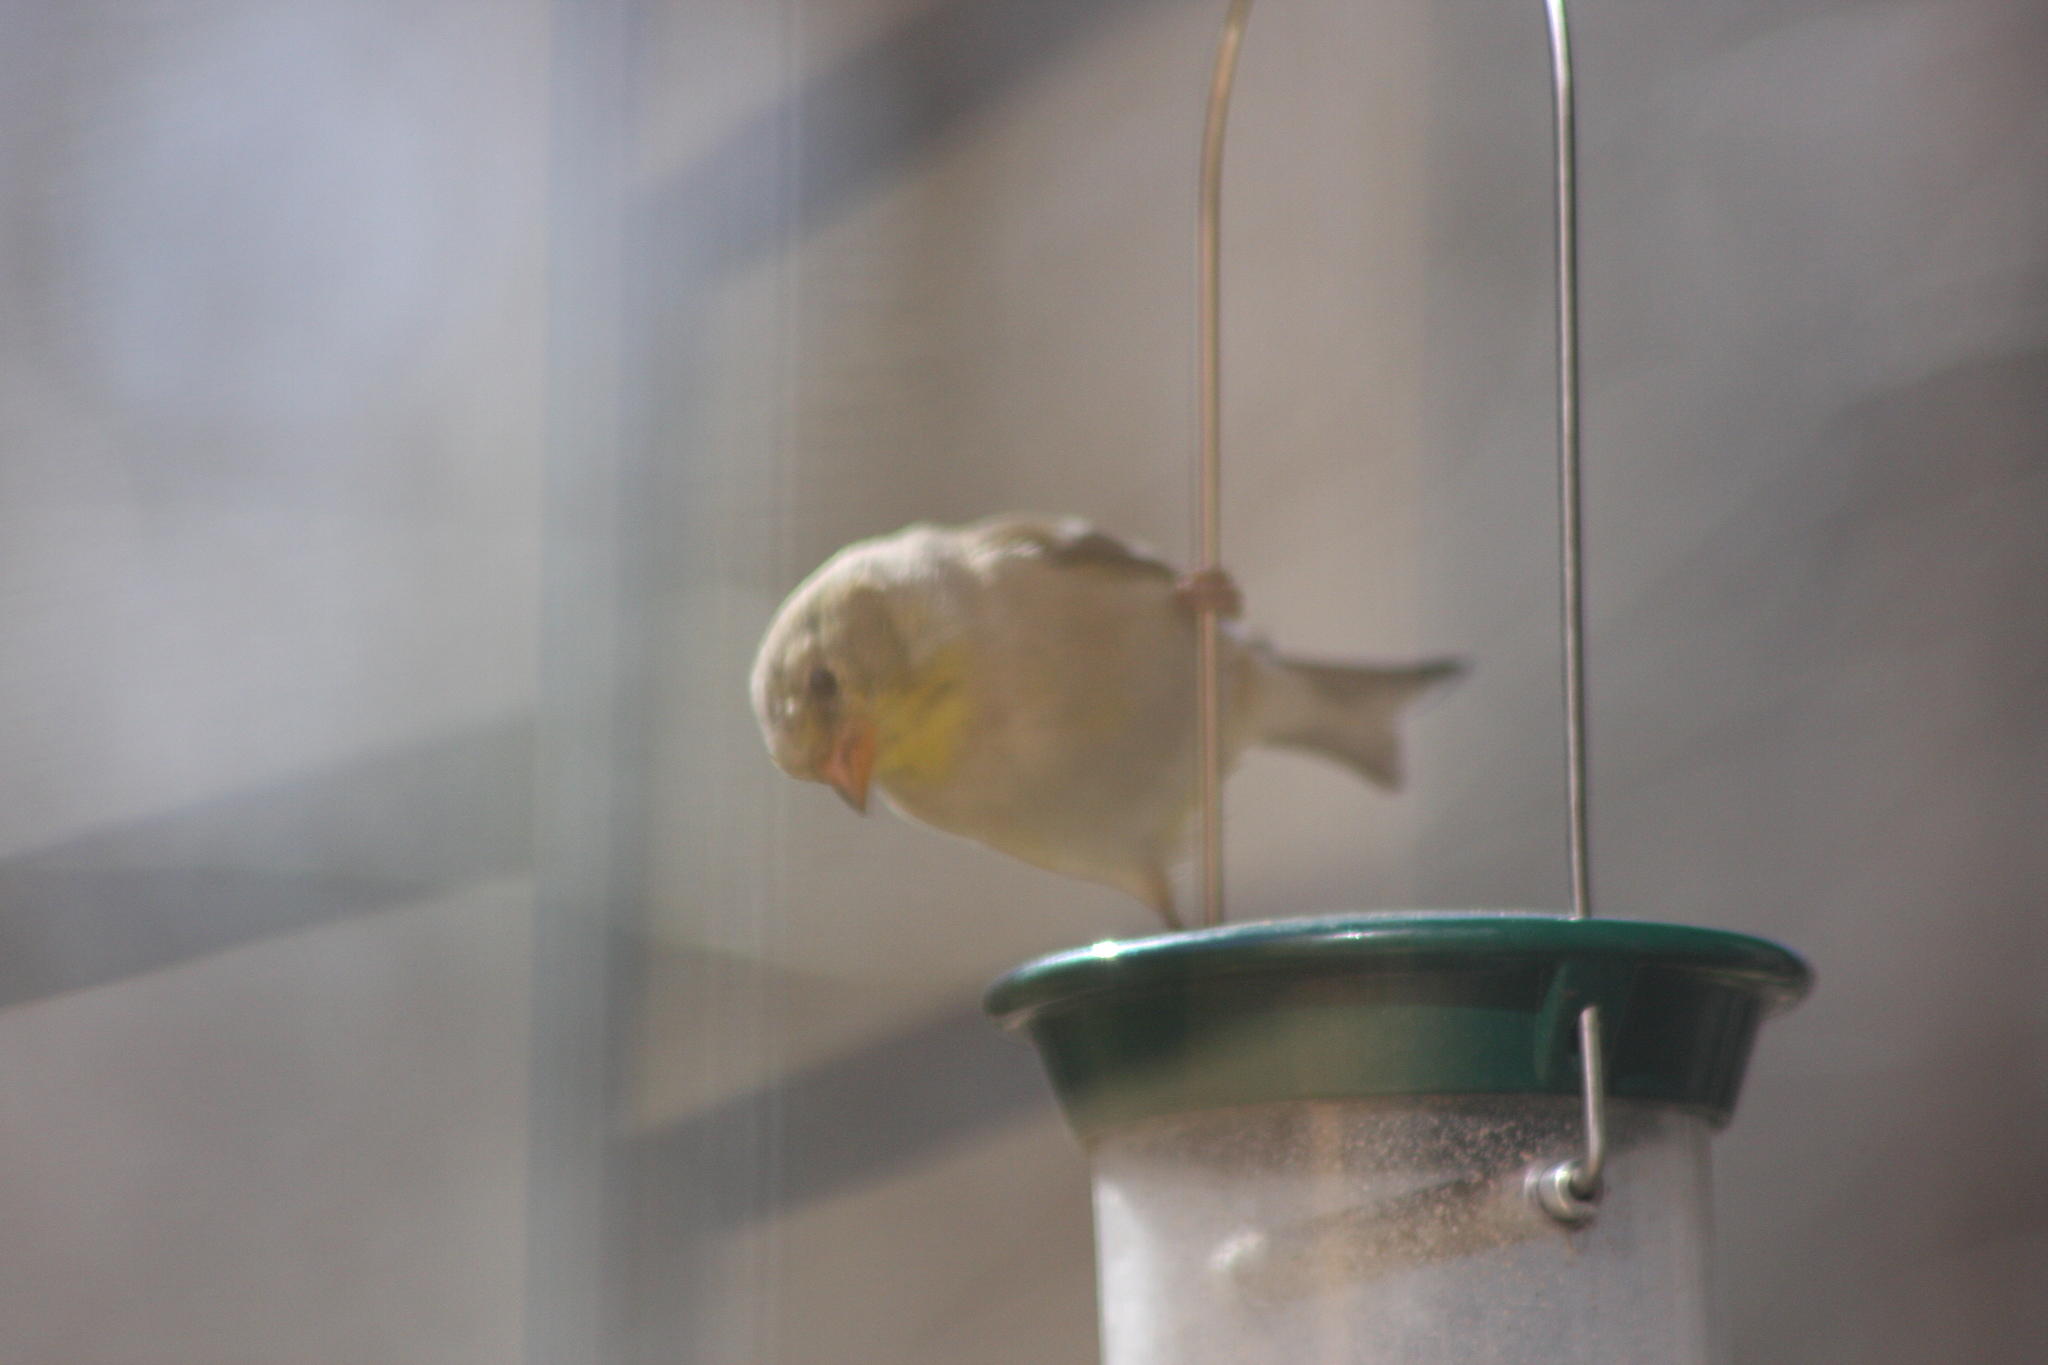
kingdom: Animalia
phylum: Chordata
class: Aves
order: Passeriformes
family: Fringillidae
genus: Spinus
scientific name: Spinus tristis
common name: American goldfinch
